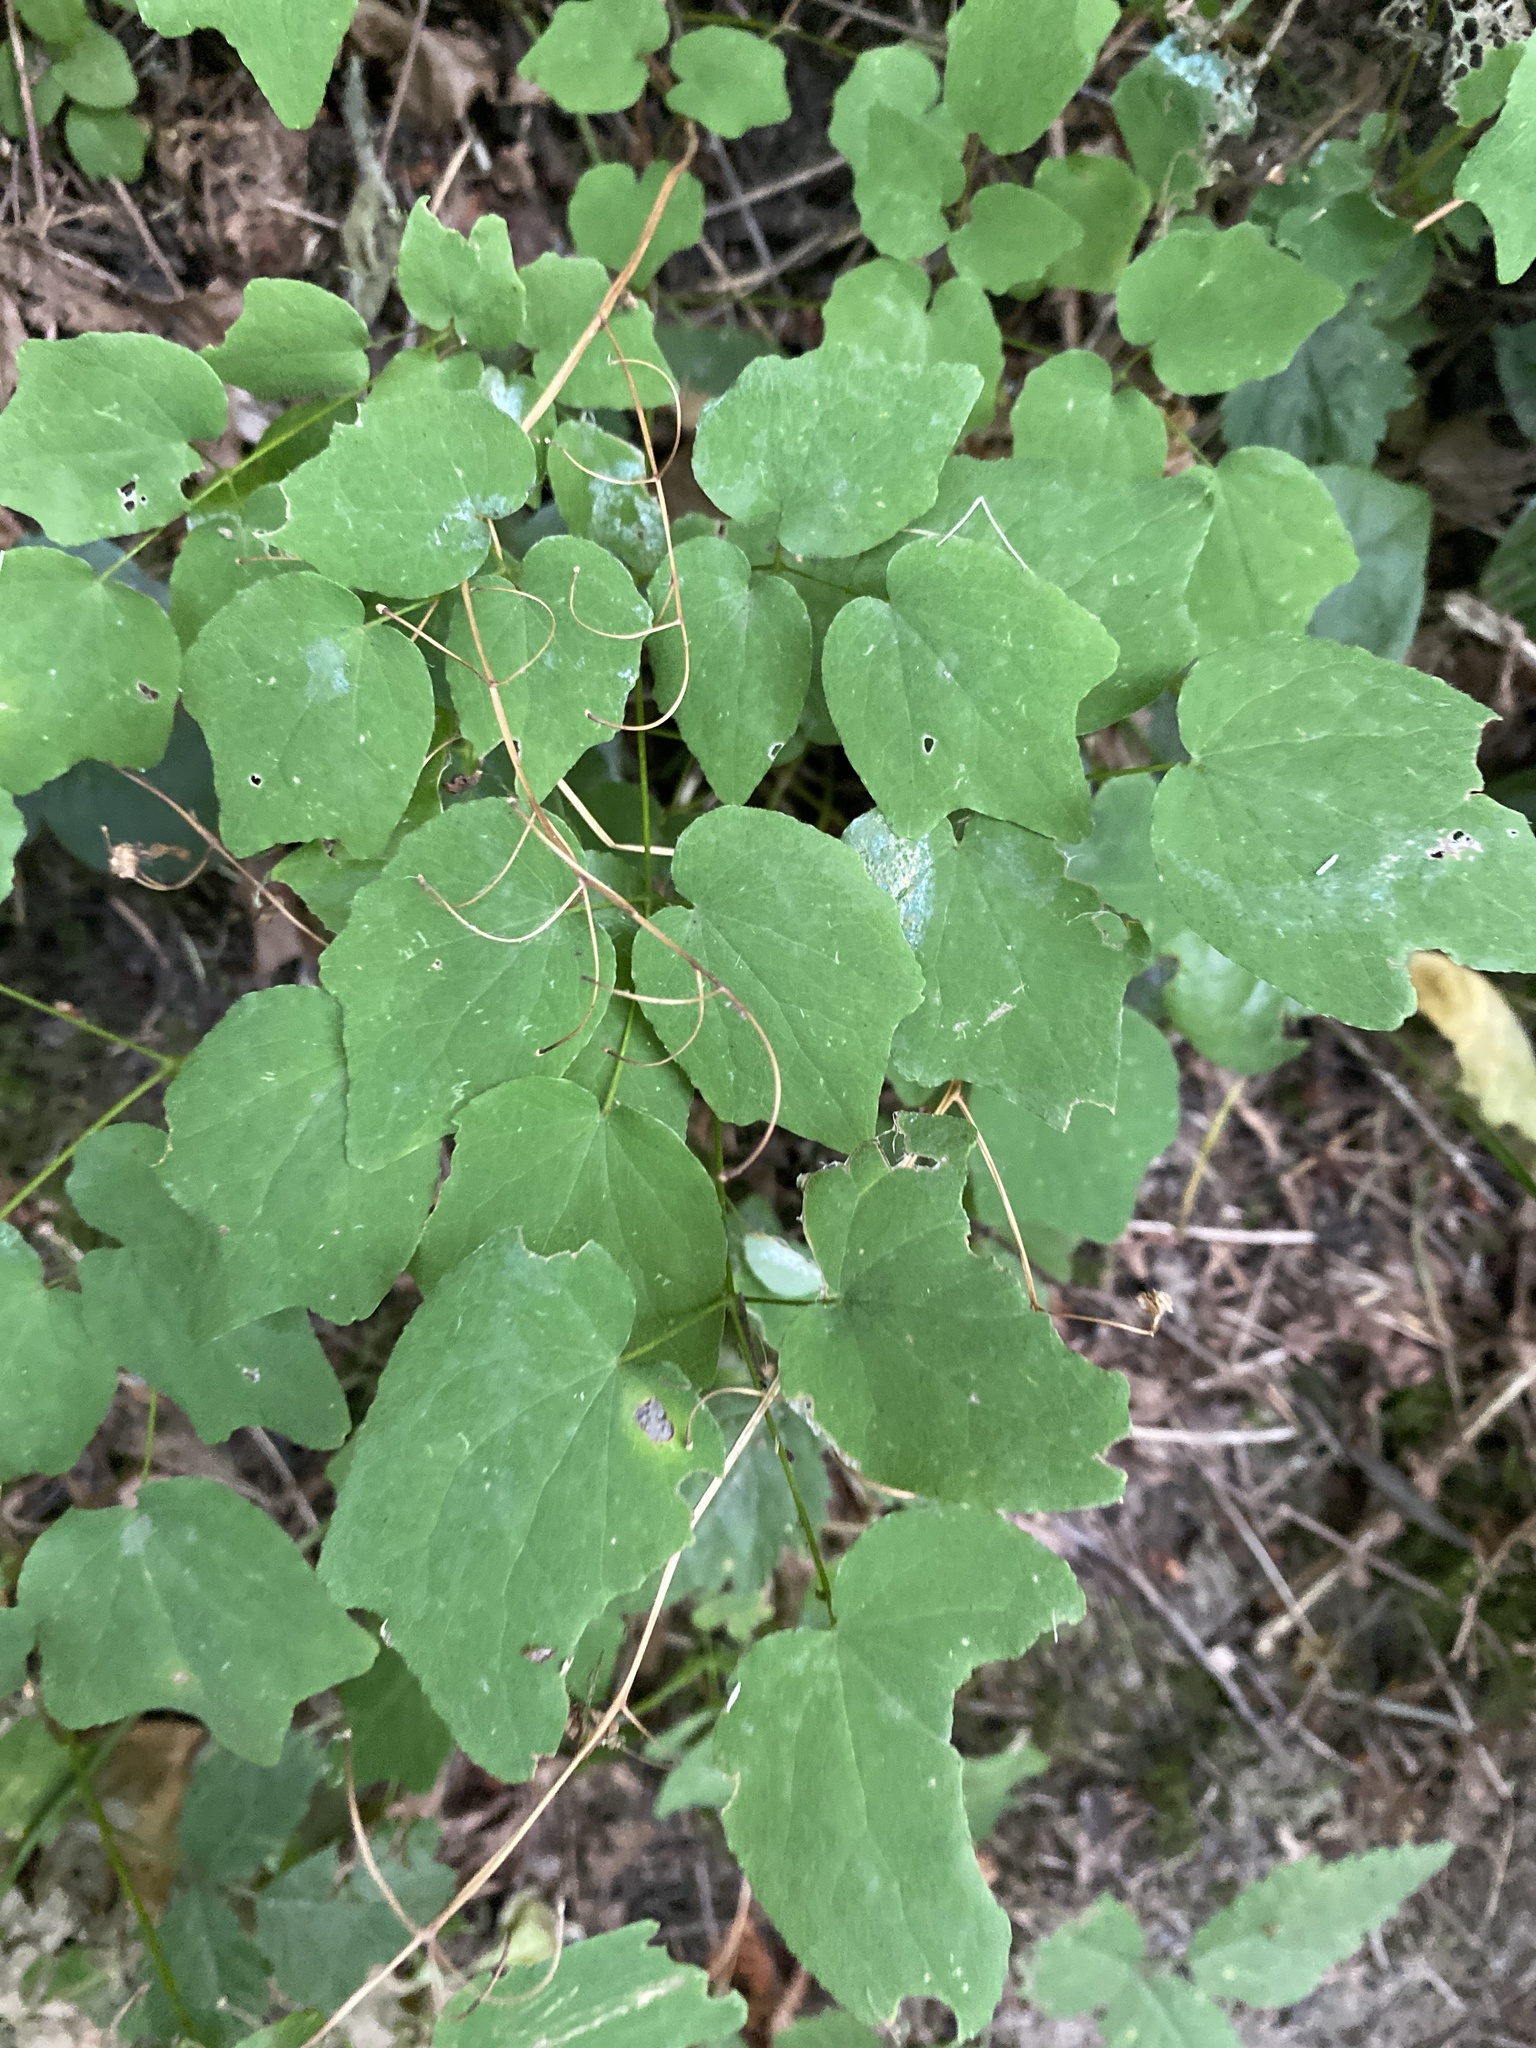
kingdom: Plantae
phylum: Tracheophyta
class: Magnoliopsida
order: Ranunculales
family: Berberidaceae
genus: Vancouveria
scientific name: Vancouveria hexandra
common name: Northern inside-out-flower
